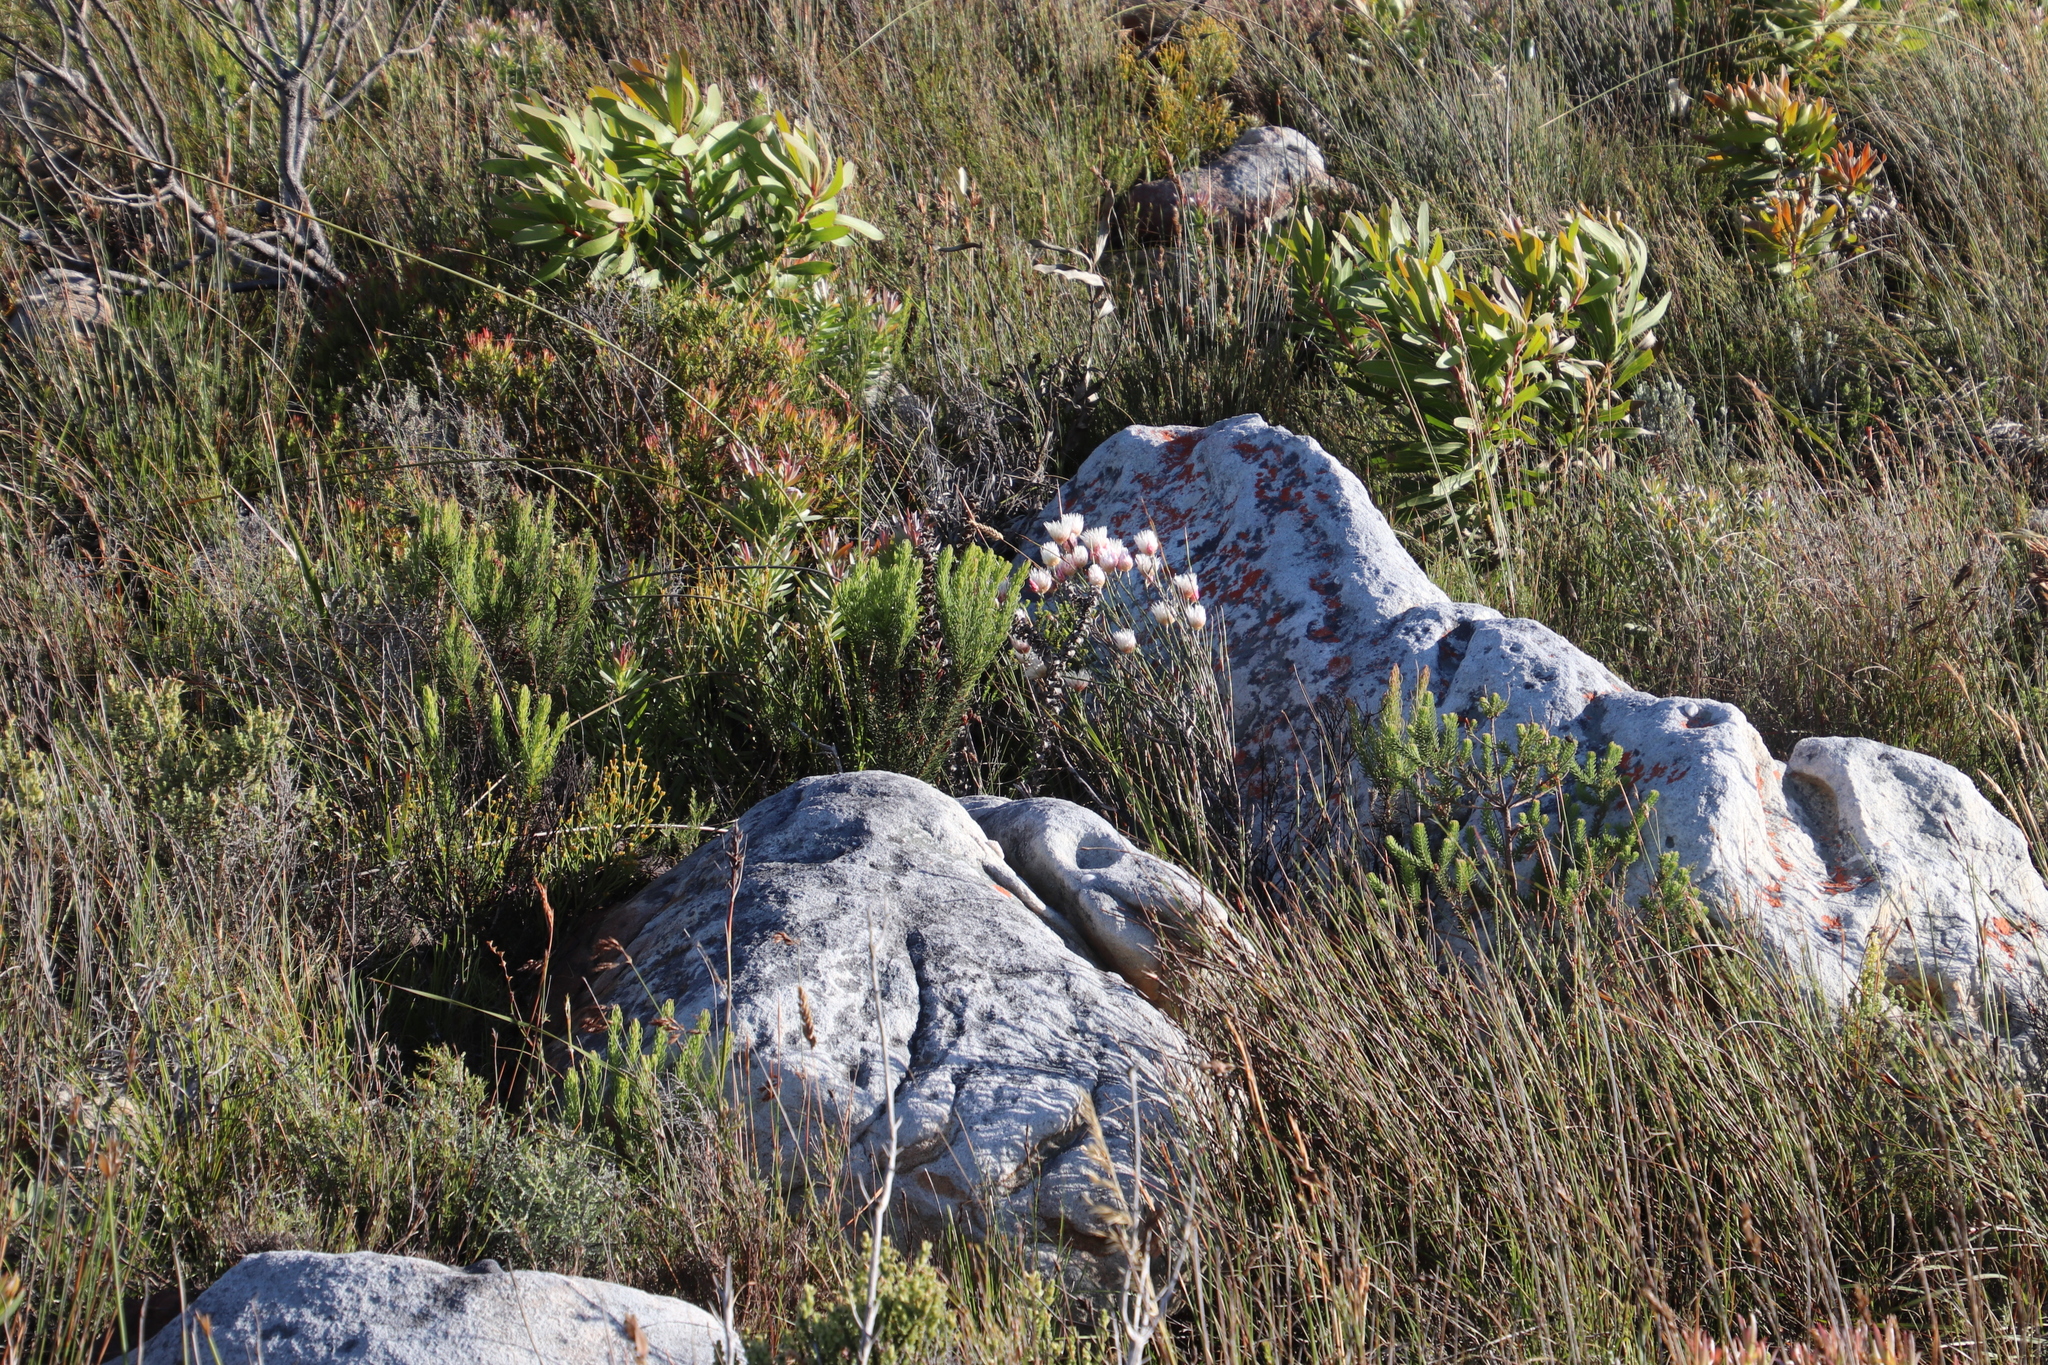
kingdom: Plantae
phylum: Tracheophyta
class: Magnoliopsida
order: Asterales
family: Asteraceae
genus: Edmondia
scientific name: Edmondia sesamoides
